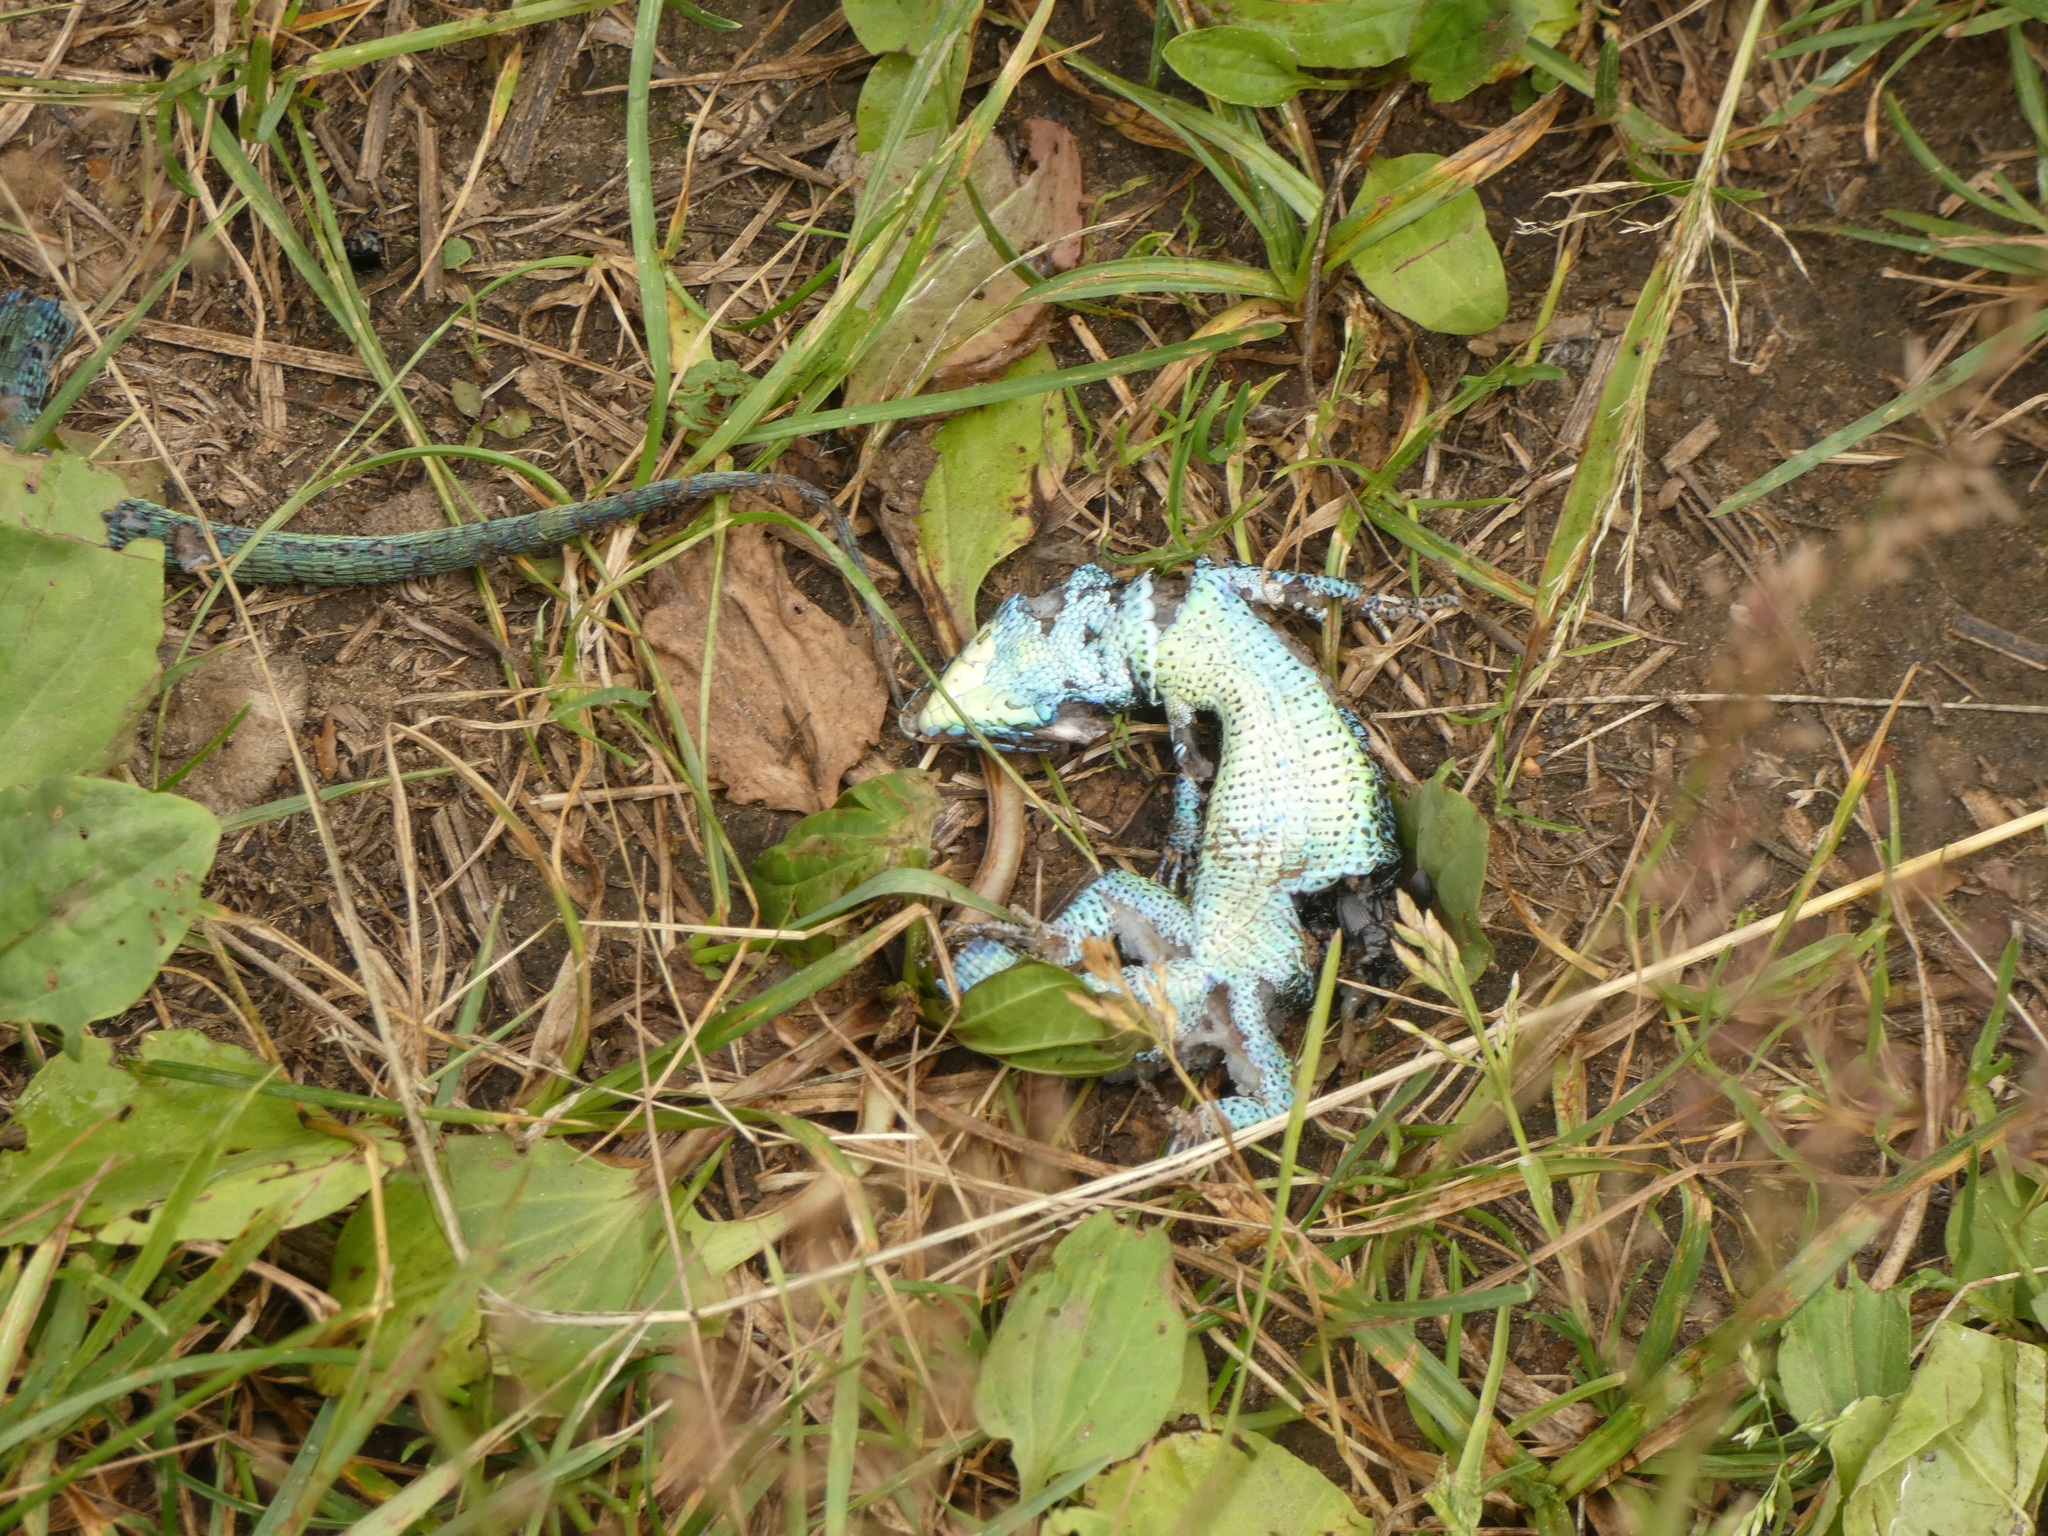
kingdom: Animalia
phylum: Chordata
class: Squamata
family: Lacertidae
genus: Lacerta
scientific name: Lacerta agilis
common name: Sand lizard
